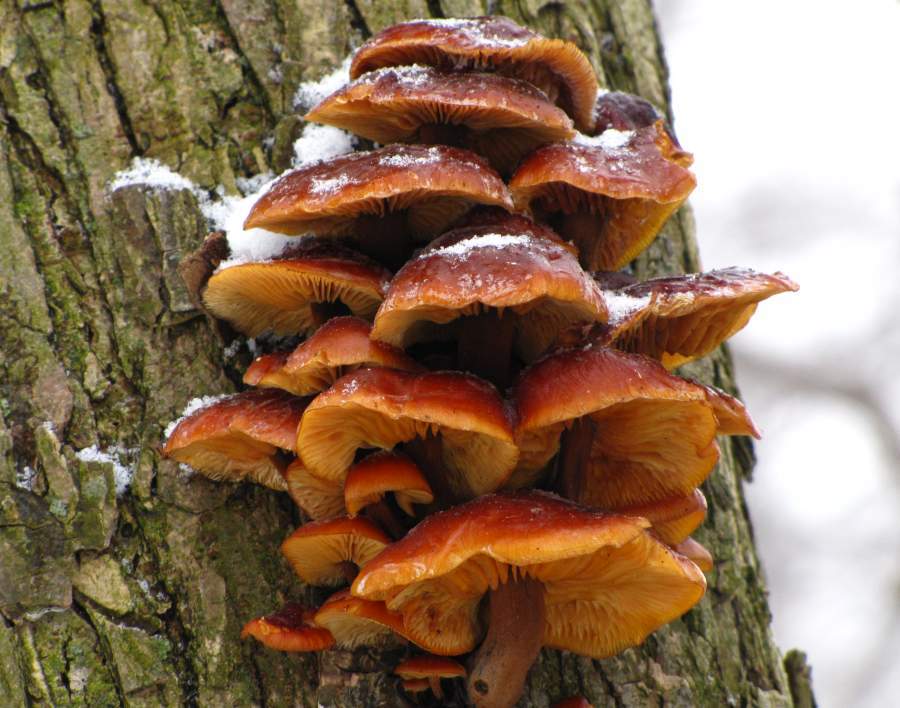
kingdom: Fungi
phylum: Basidiomycota
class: Agaricomycetes
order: Agaricales
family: Physalacriaceae
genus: Flammulina
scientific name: Flammulina velutipes
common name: Velvet shank
